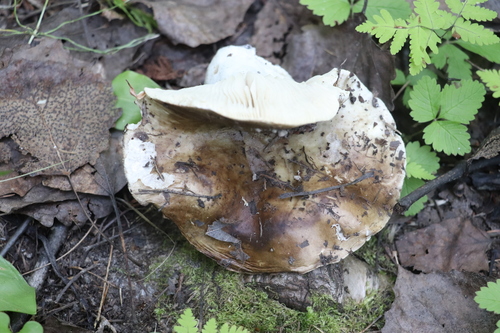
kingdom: Fungi
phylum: Basidiomycota
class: Agaricomycetes
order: Russulales
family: Russulaceae
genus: Russula
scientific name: Russula densifolia
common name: Crowded brittlegill
